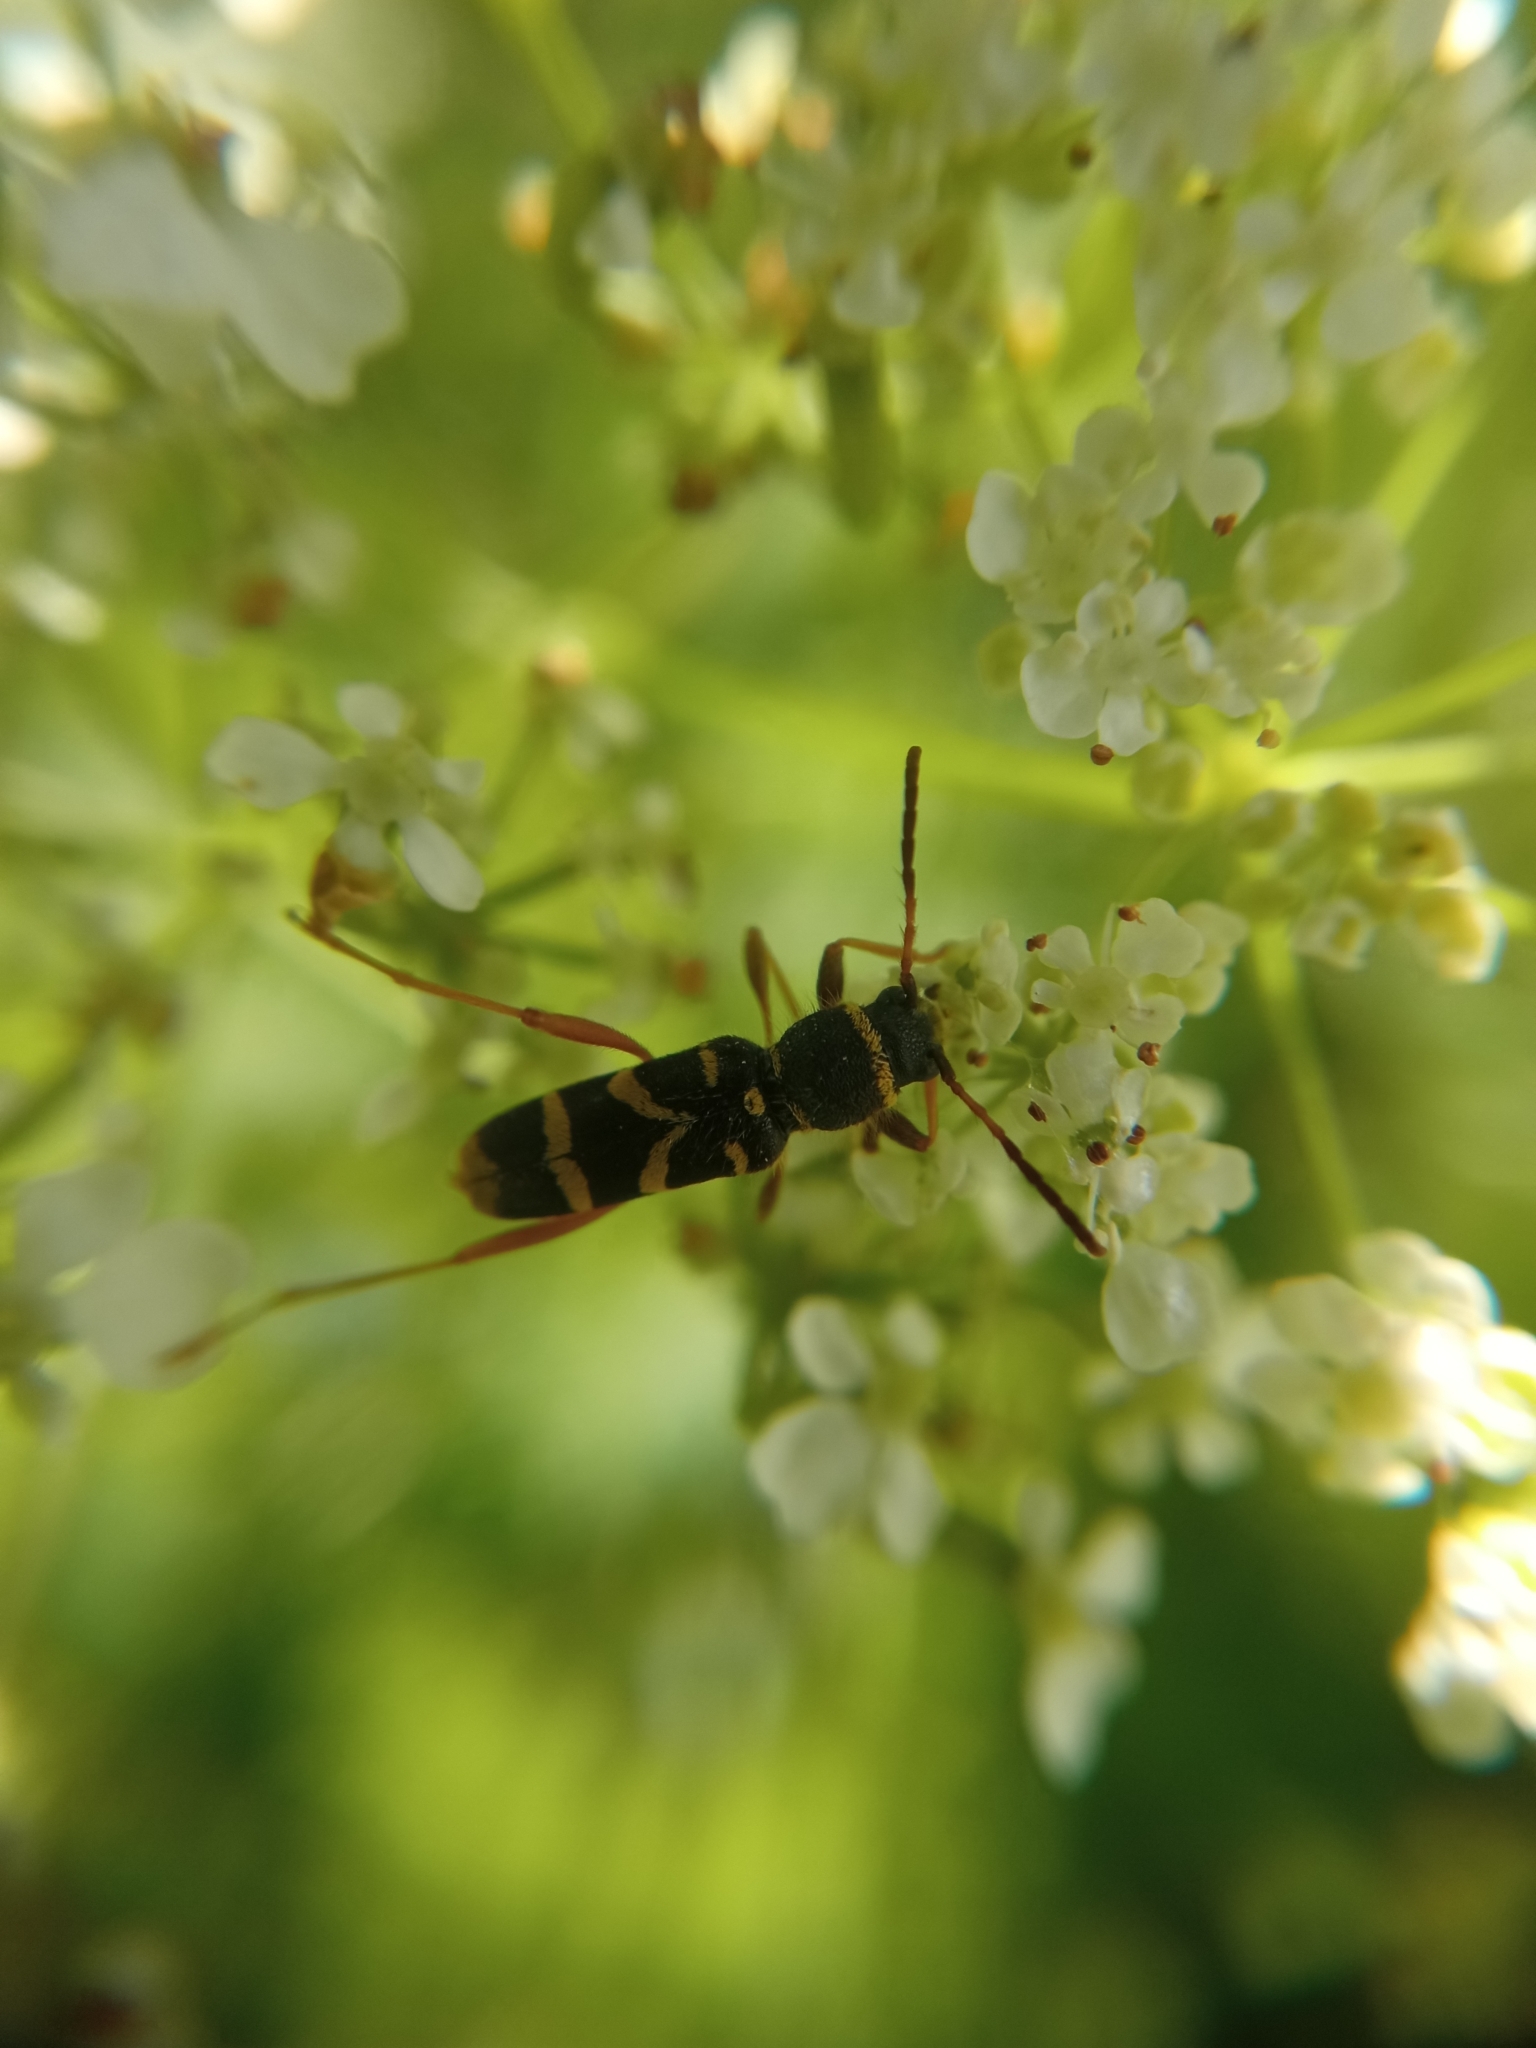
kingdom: Animalia
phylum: Arthropoda
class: Insecta
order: Coleoptera
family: Cerambycidae
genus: Clytus
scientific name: Clytus arietis
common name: Wasp beetle
